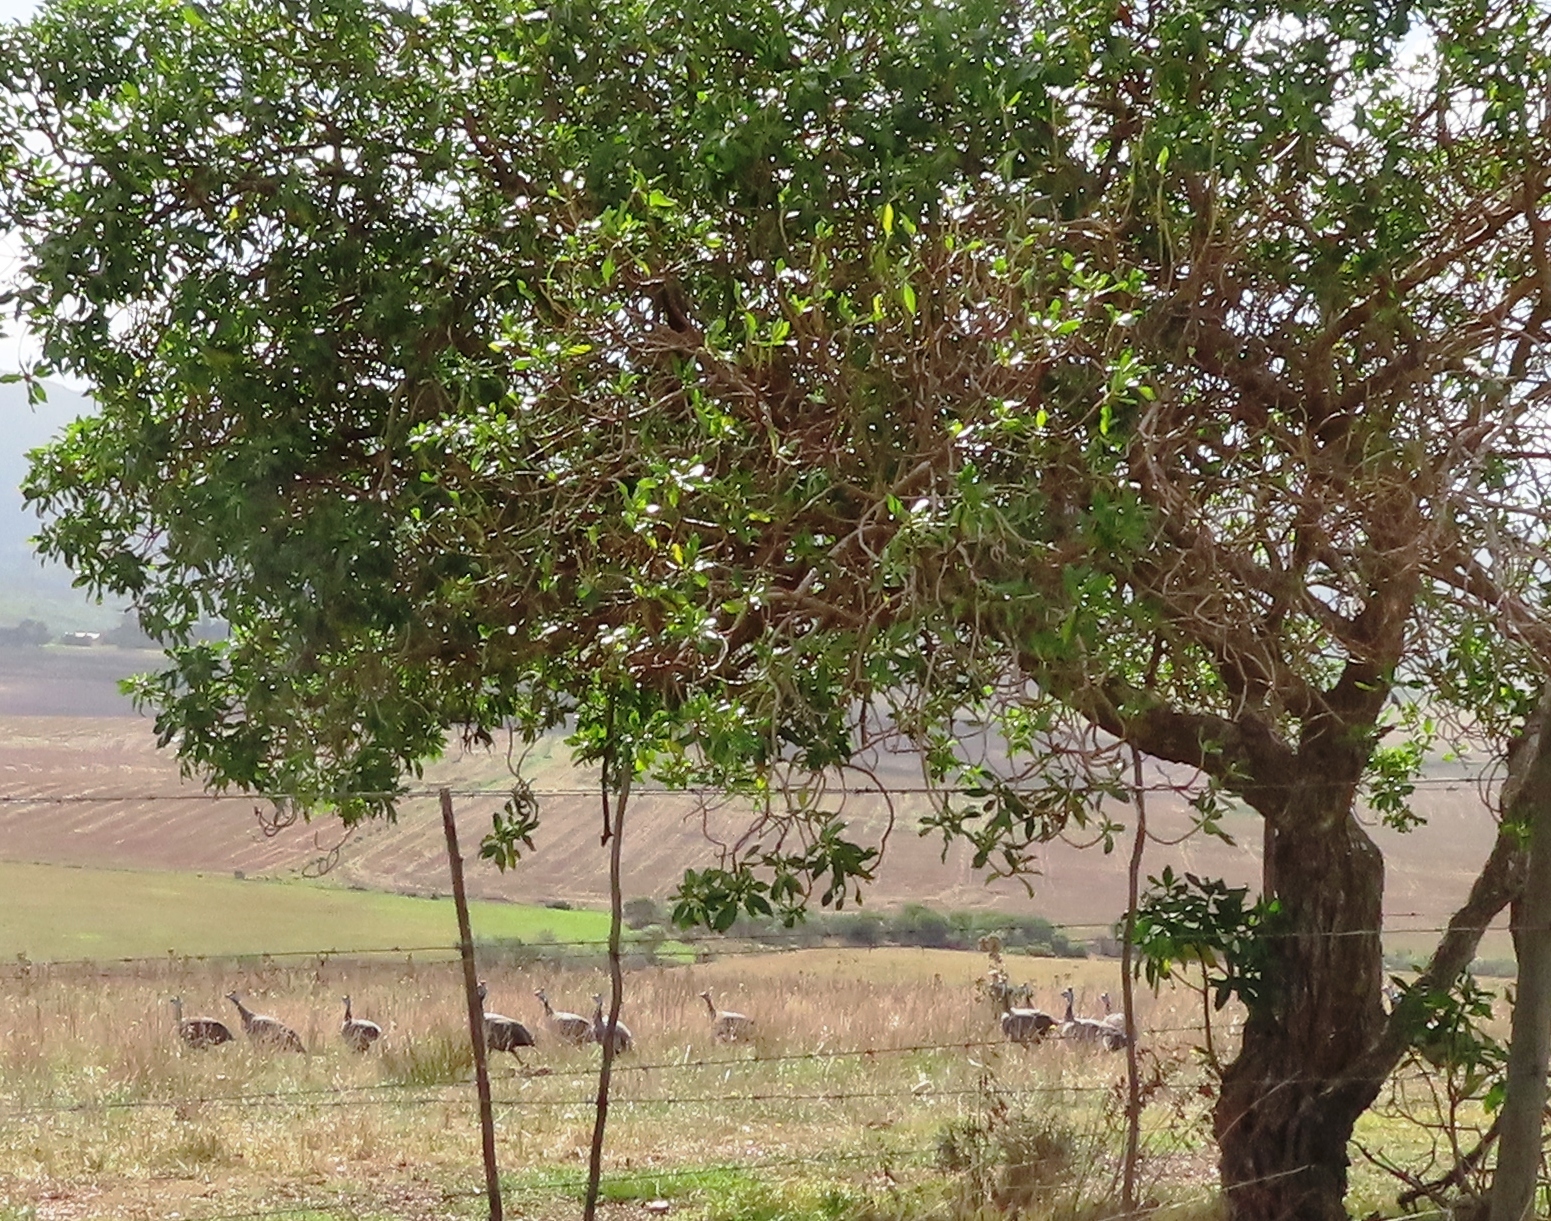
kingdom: Animalia
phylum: Chordata
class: Aves
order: Galliformes
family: Numididae
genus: Numida
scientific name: Numida meleagris
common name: Helmeted guineafowl
